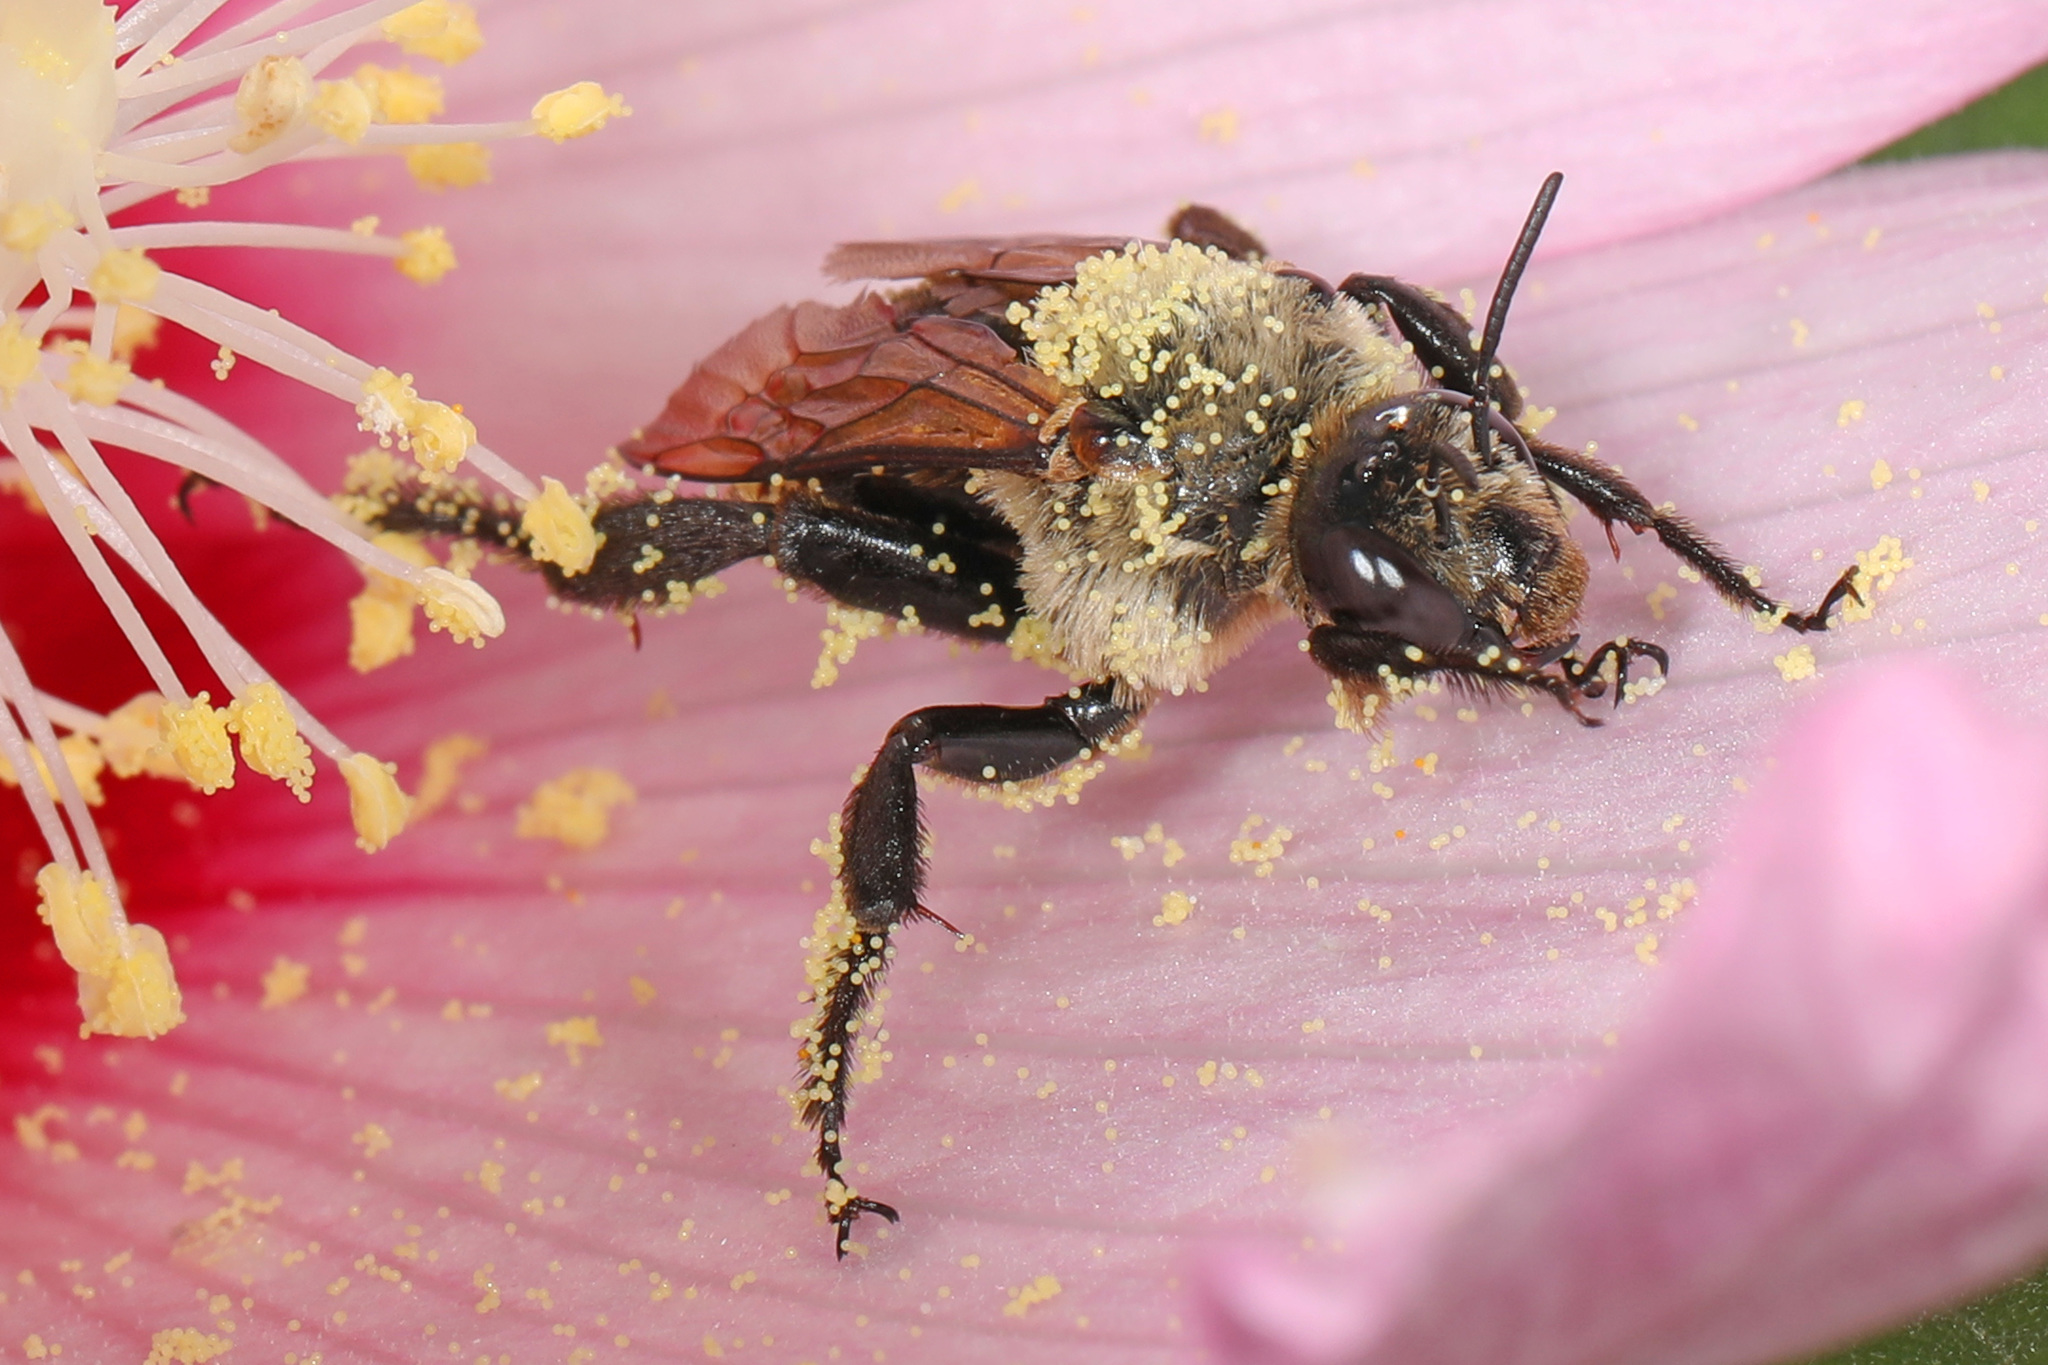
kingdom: Animalia
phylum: Arthropoda
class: Insecta
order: Hymenoptera
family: Apidae
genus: Ptilothrix
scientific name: Ptilothrix bombiformis
